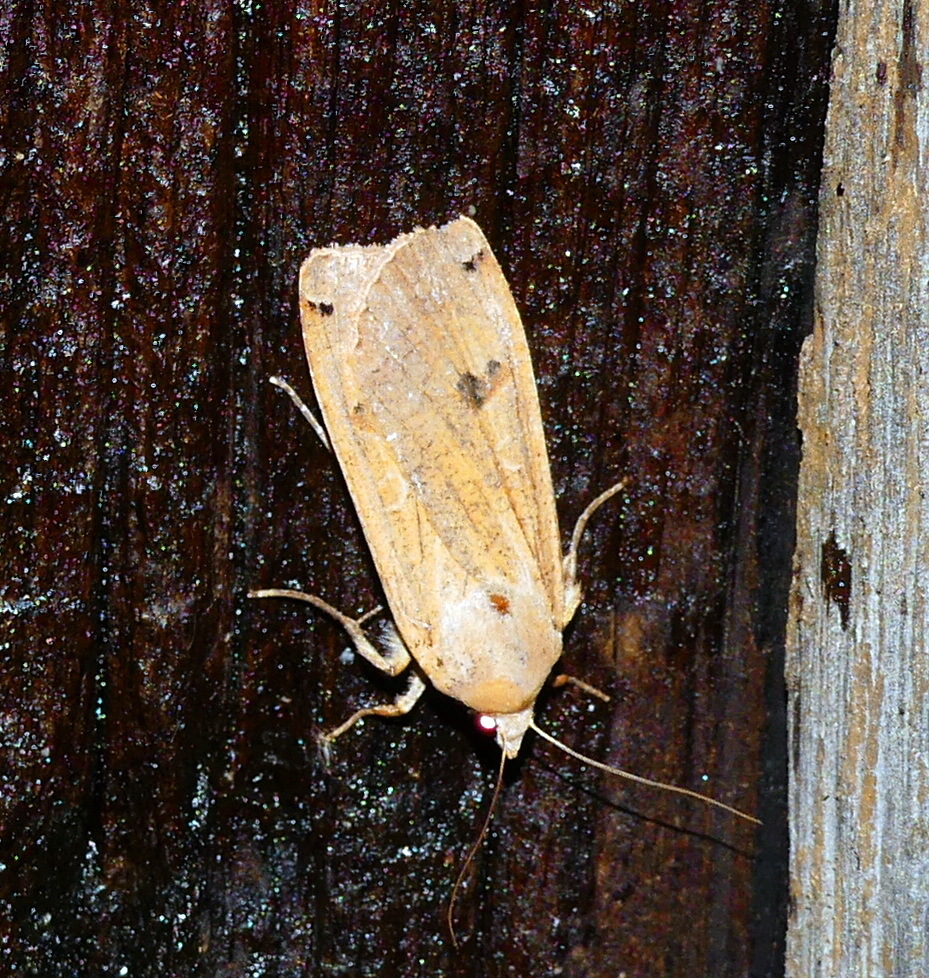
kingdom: Animalia
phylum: Arthropoda
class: Insecta
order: Lepidoptera
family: Noctuidae
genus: Noctua
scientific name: Noctua pronuba
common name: Large yellow underwing
